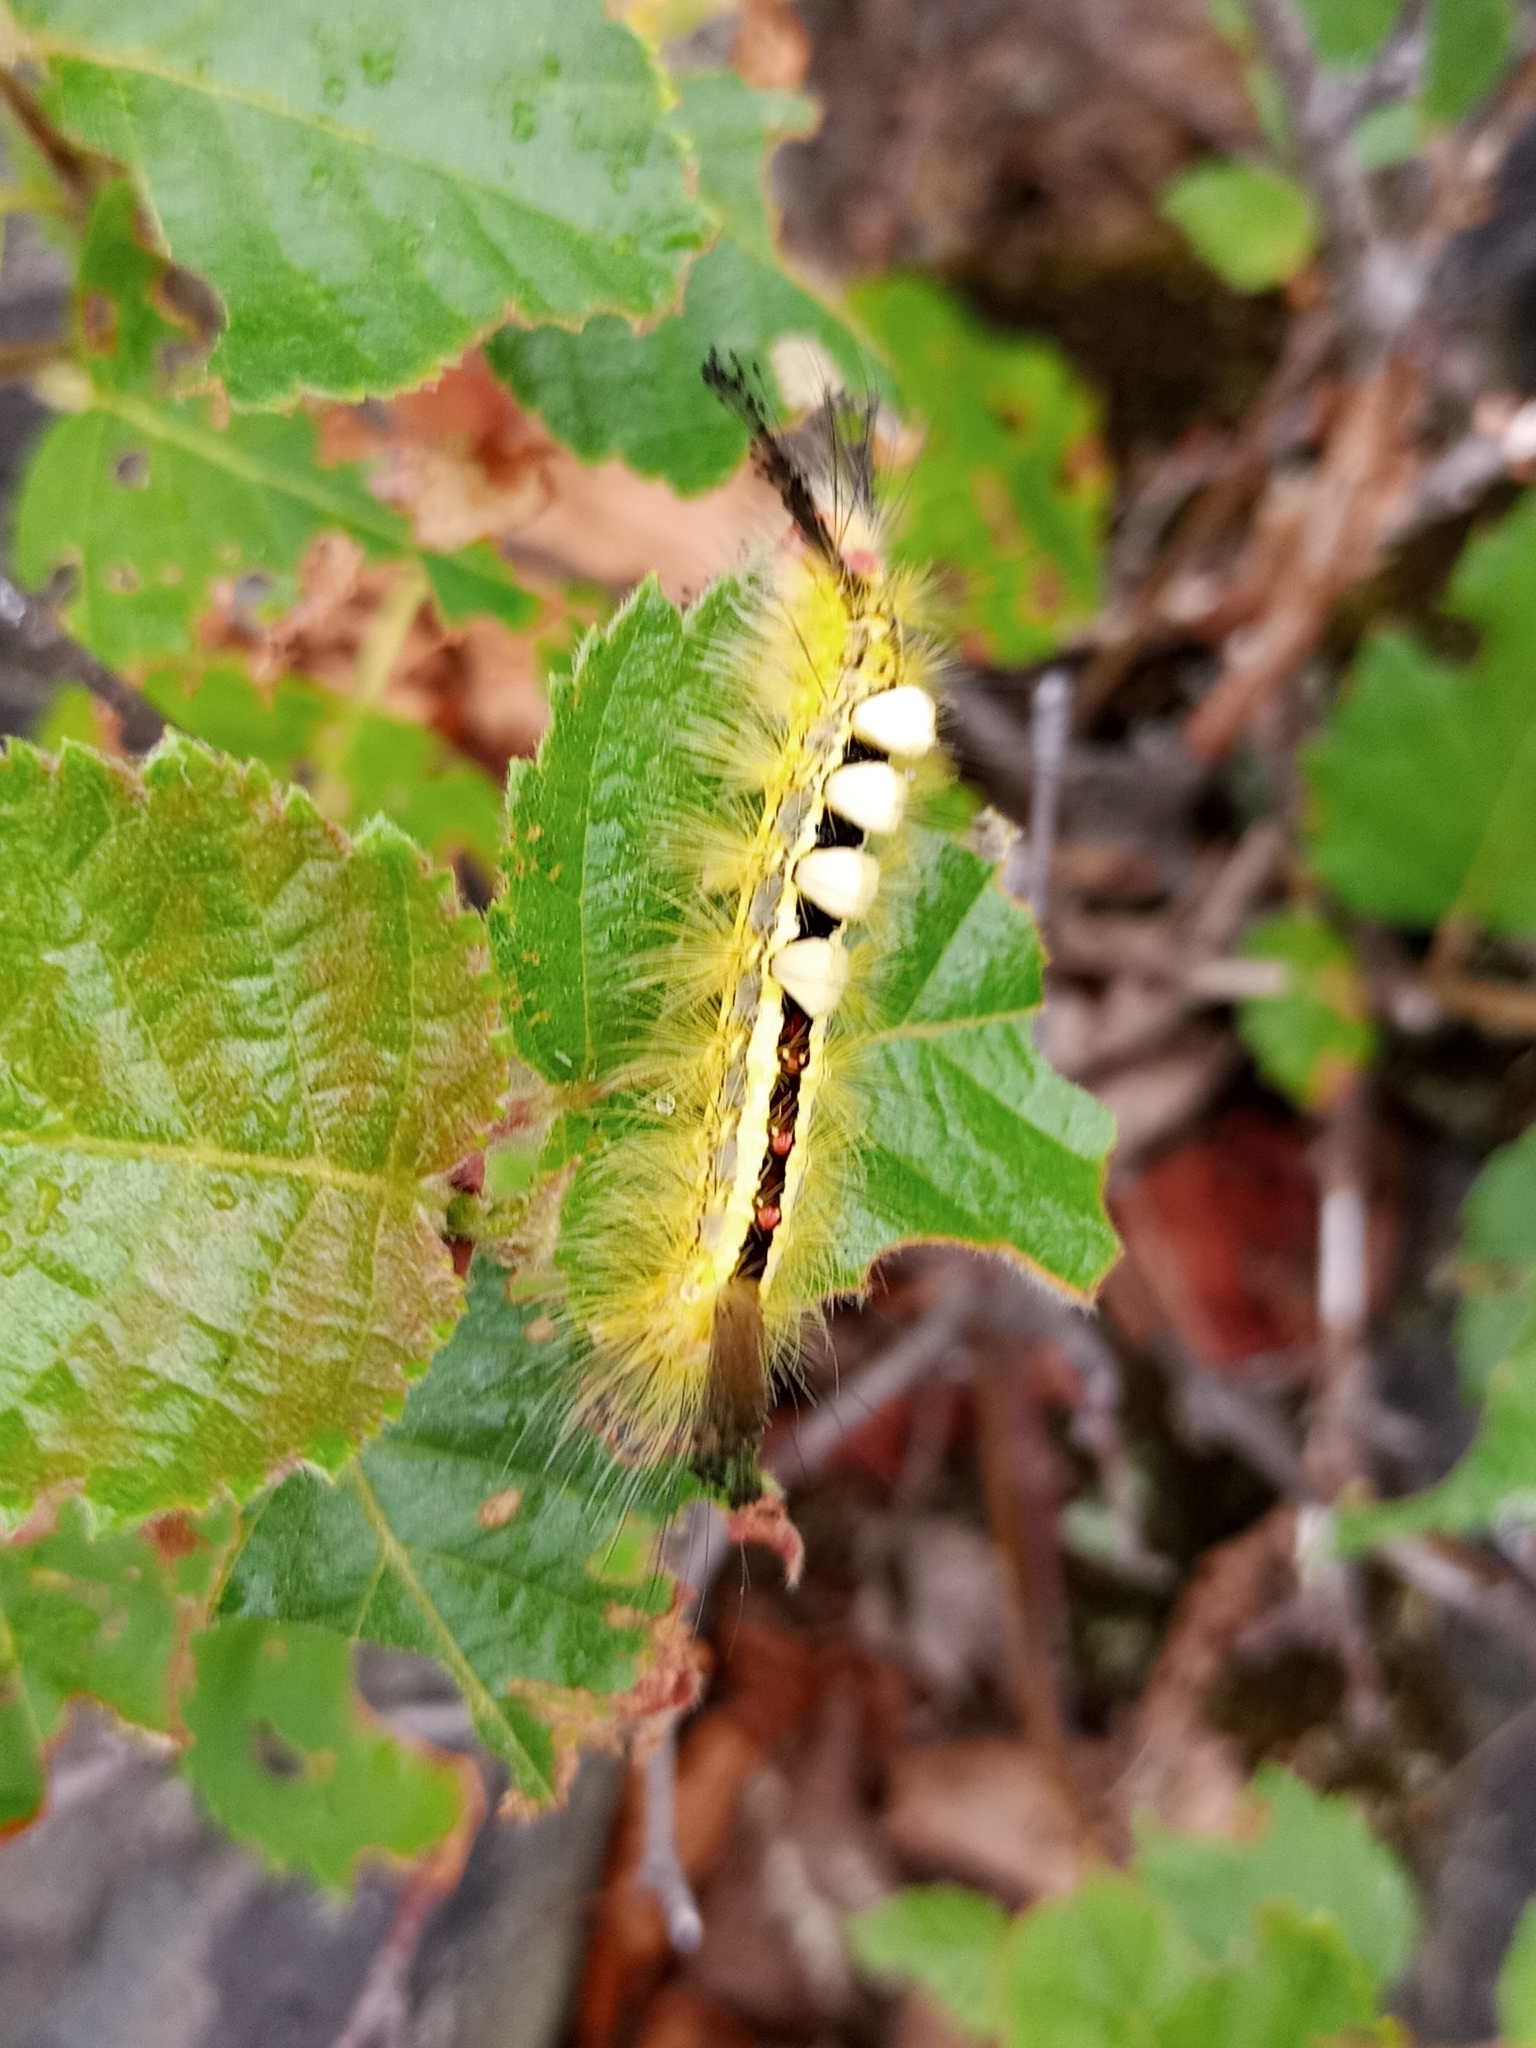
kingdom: Animalia
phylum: Arthropoda
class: Insecta
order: Lepidoptera
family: Erebidae
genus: Orgyia
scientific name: Orgyia leucostigma
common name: White-marked tussock moth
